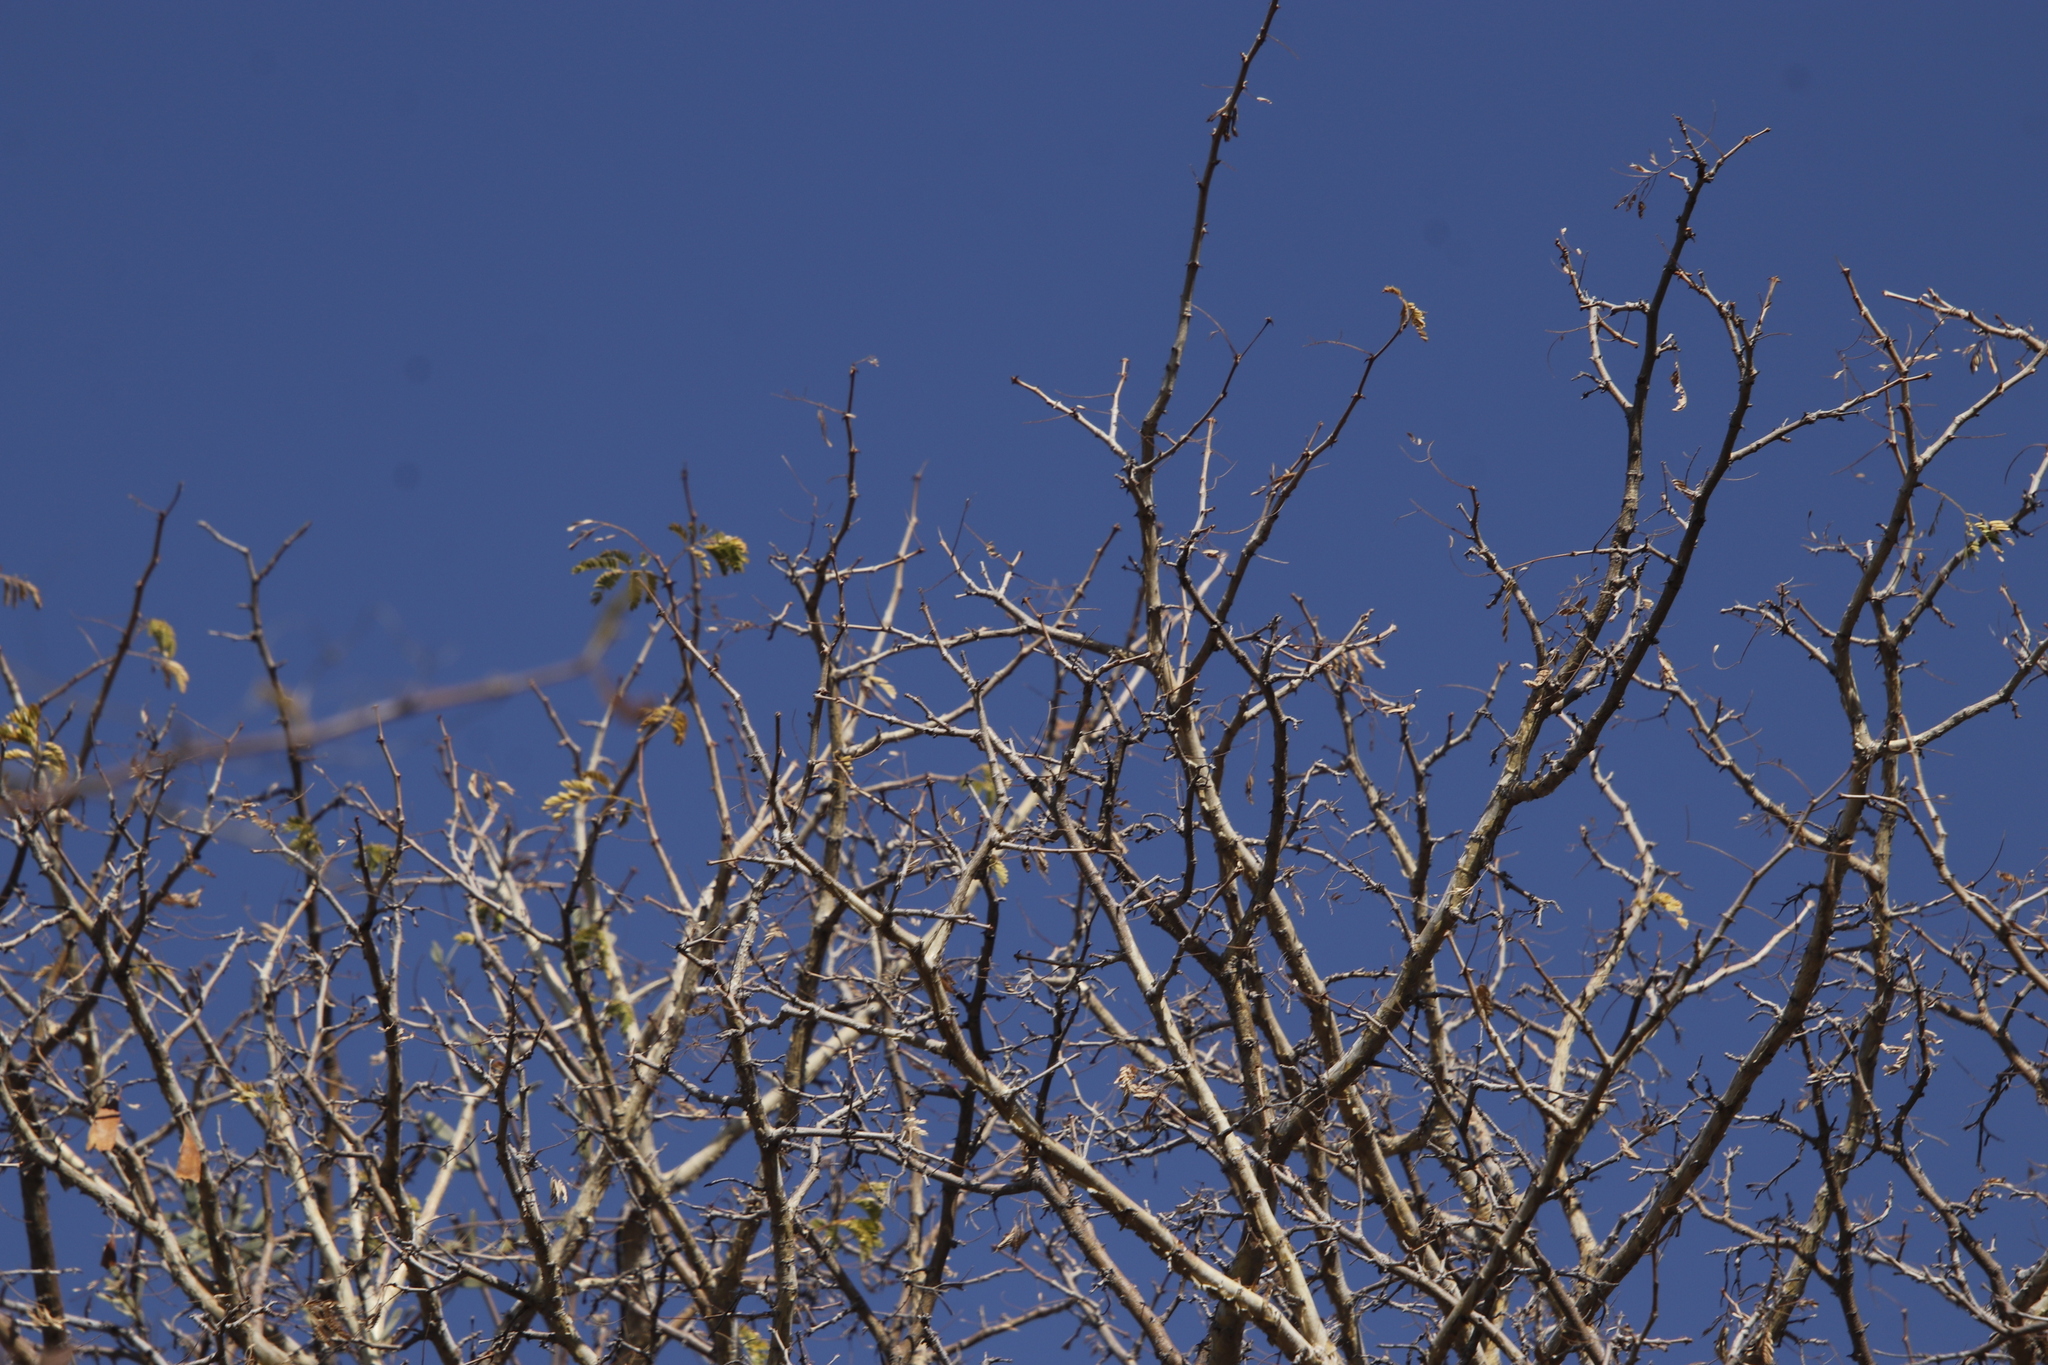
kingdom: Plantae
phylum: Tracheophyta
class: Magnoliopsida
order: Fabales
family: Fabaceae
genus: Senegalia
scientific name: Senegalia erubescens
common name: Bluethorn
